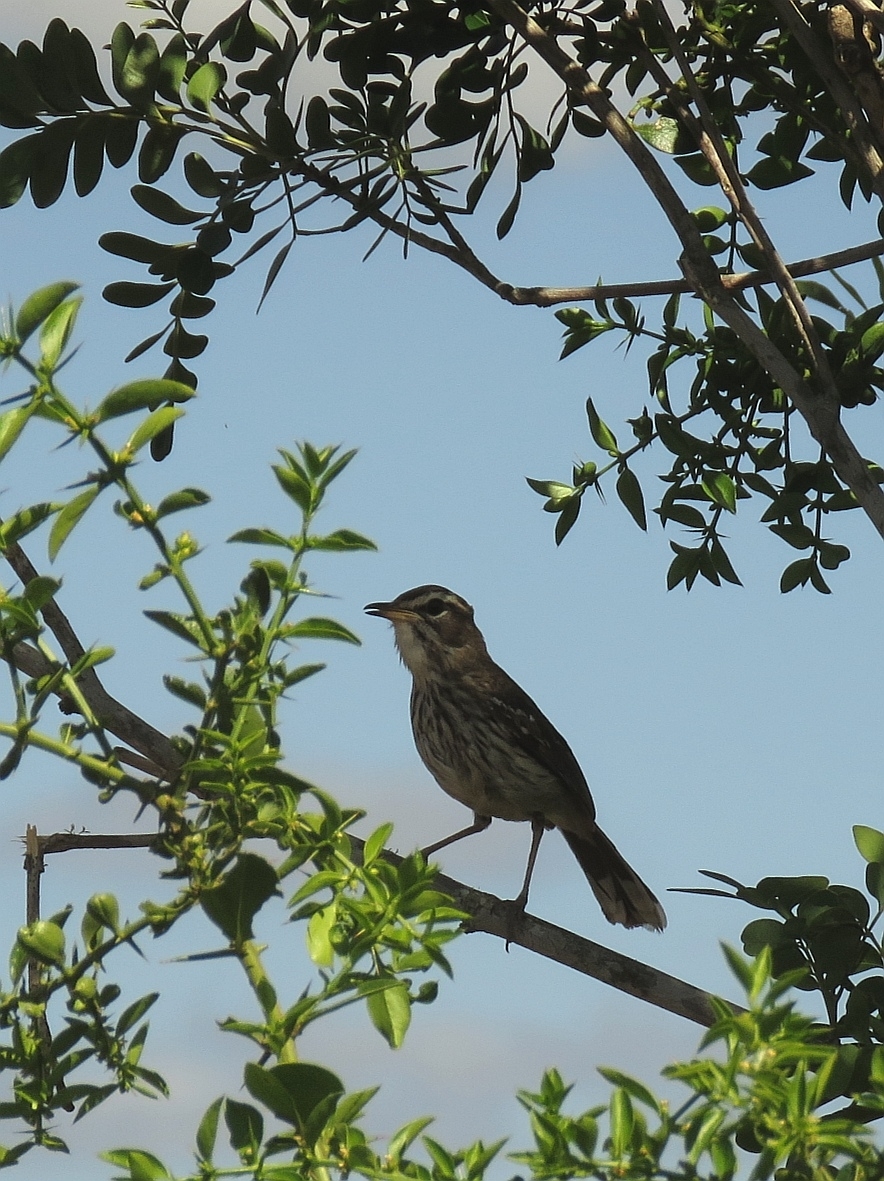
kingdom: Animalia
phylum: Chordata
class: Aves
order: Passeriformes
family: Muscicapidae
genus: Erythropygia
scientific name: Erythropygia leucophrys
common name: White-browed scrub robin
